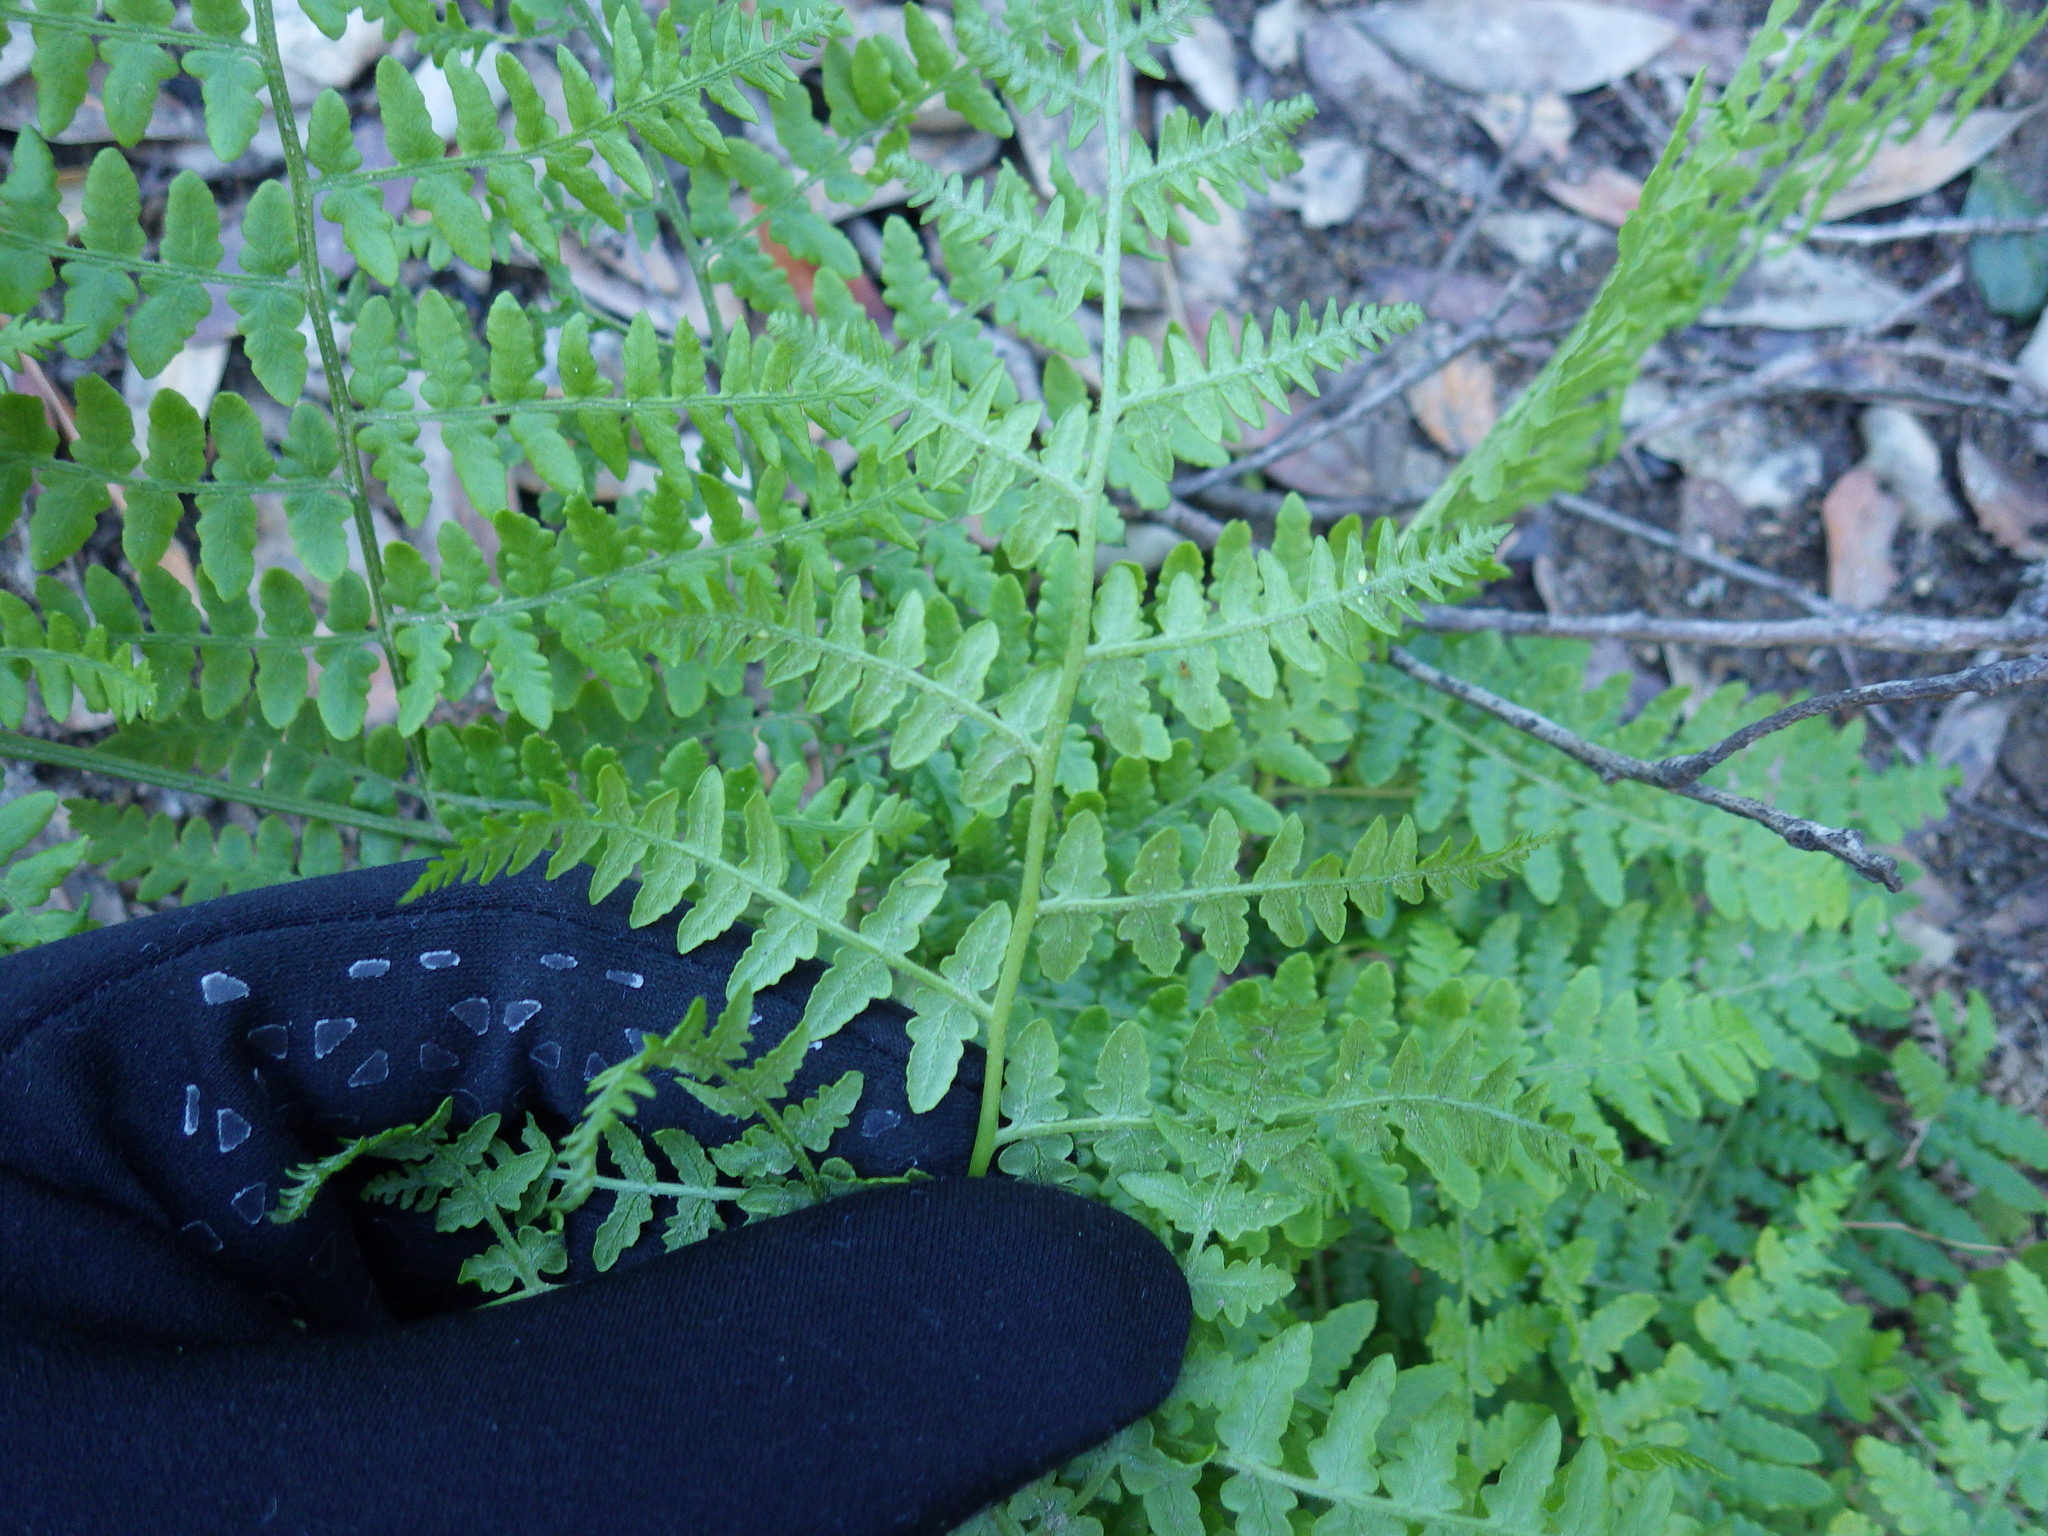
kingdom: Plantae
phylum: Tracheophyta
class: Polypodiopsida
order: Polypodiales
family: Dennstaedtiaceae
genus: Pteridium
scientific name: Pteridium aquilinum
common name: Bracken
